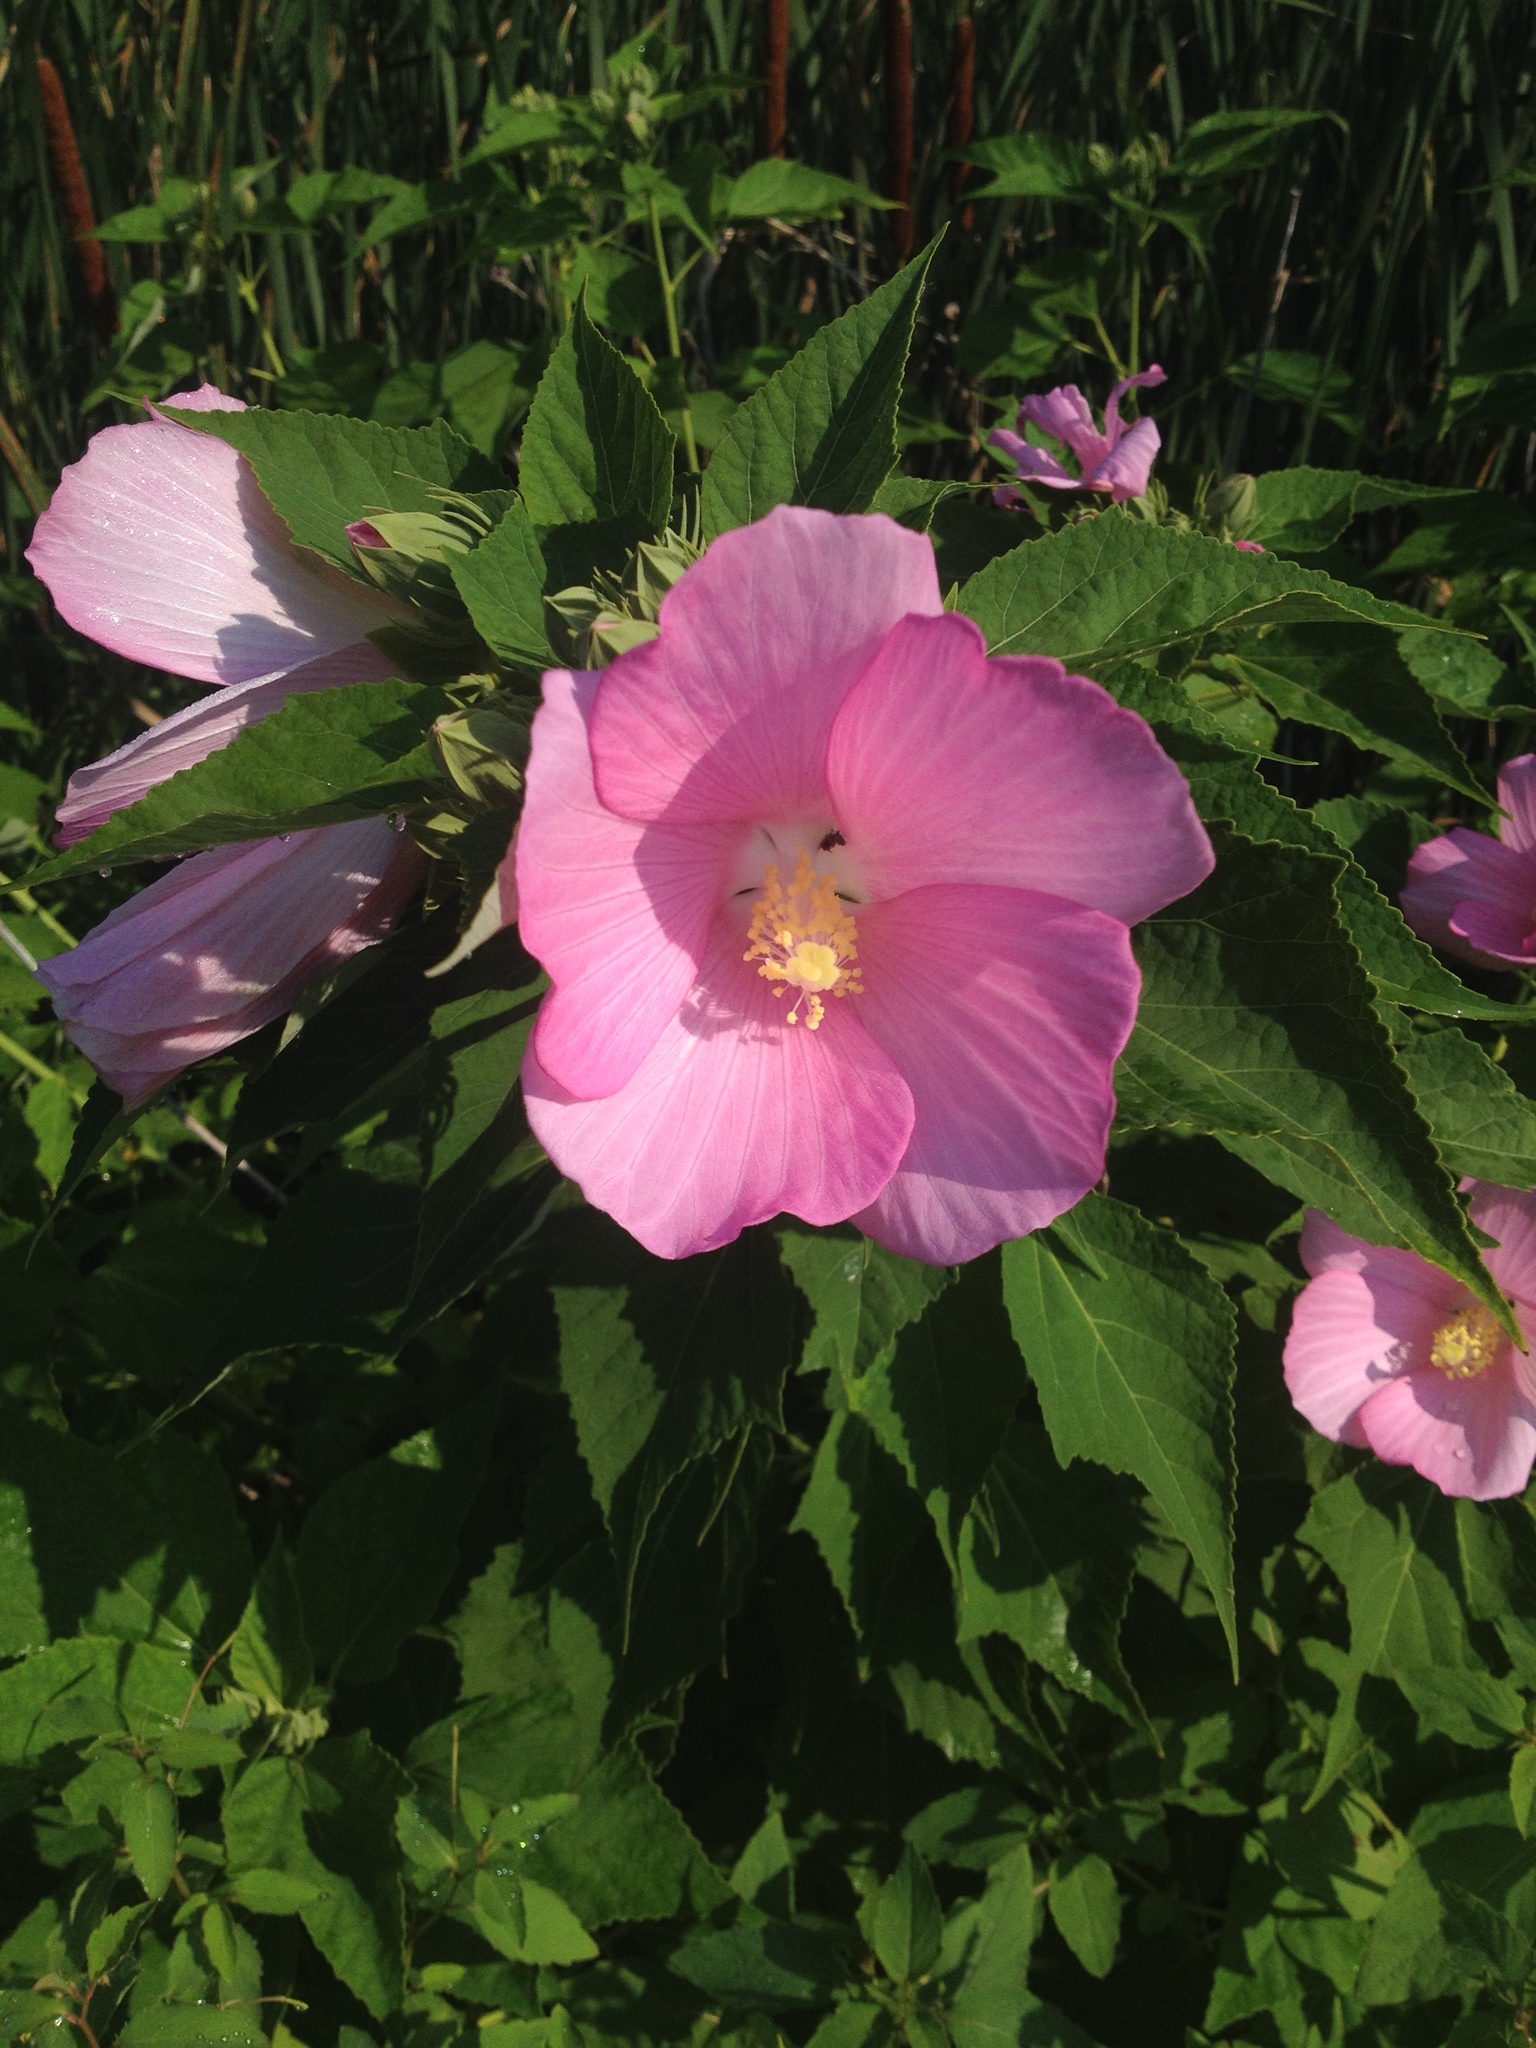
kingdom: Plantae
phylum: Tracheophyta
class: Magnoliopsida
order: Malvales
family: Malvaceae
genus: Hibiscus
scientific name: Hibiscus moscheutos
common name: Common rose-mallow
